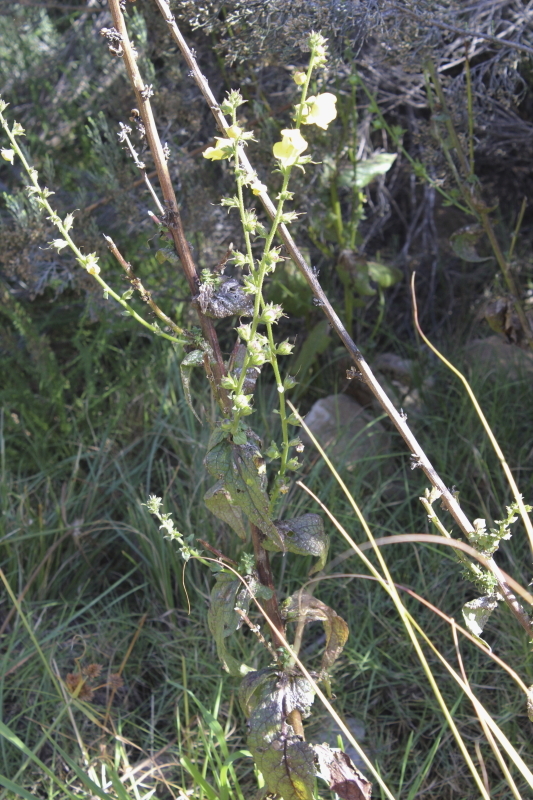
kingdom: Plantae
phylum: Tracheophyta
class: Magnoliopsida
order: Lamiales
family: Scrophulariaceae
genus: Verbascum
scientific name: Verbascum virgatum
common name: Twiggy mullein
